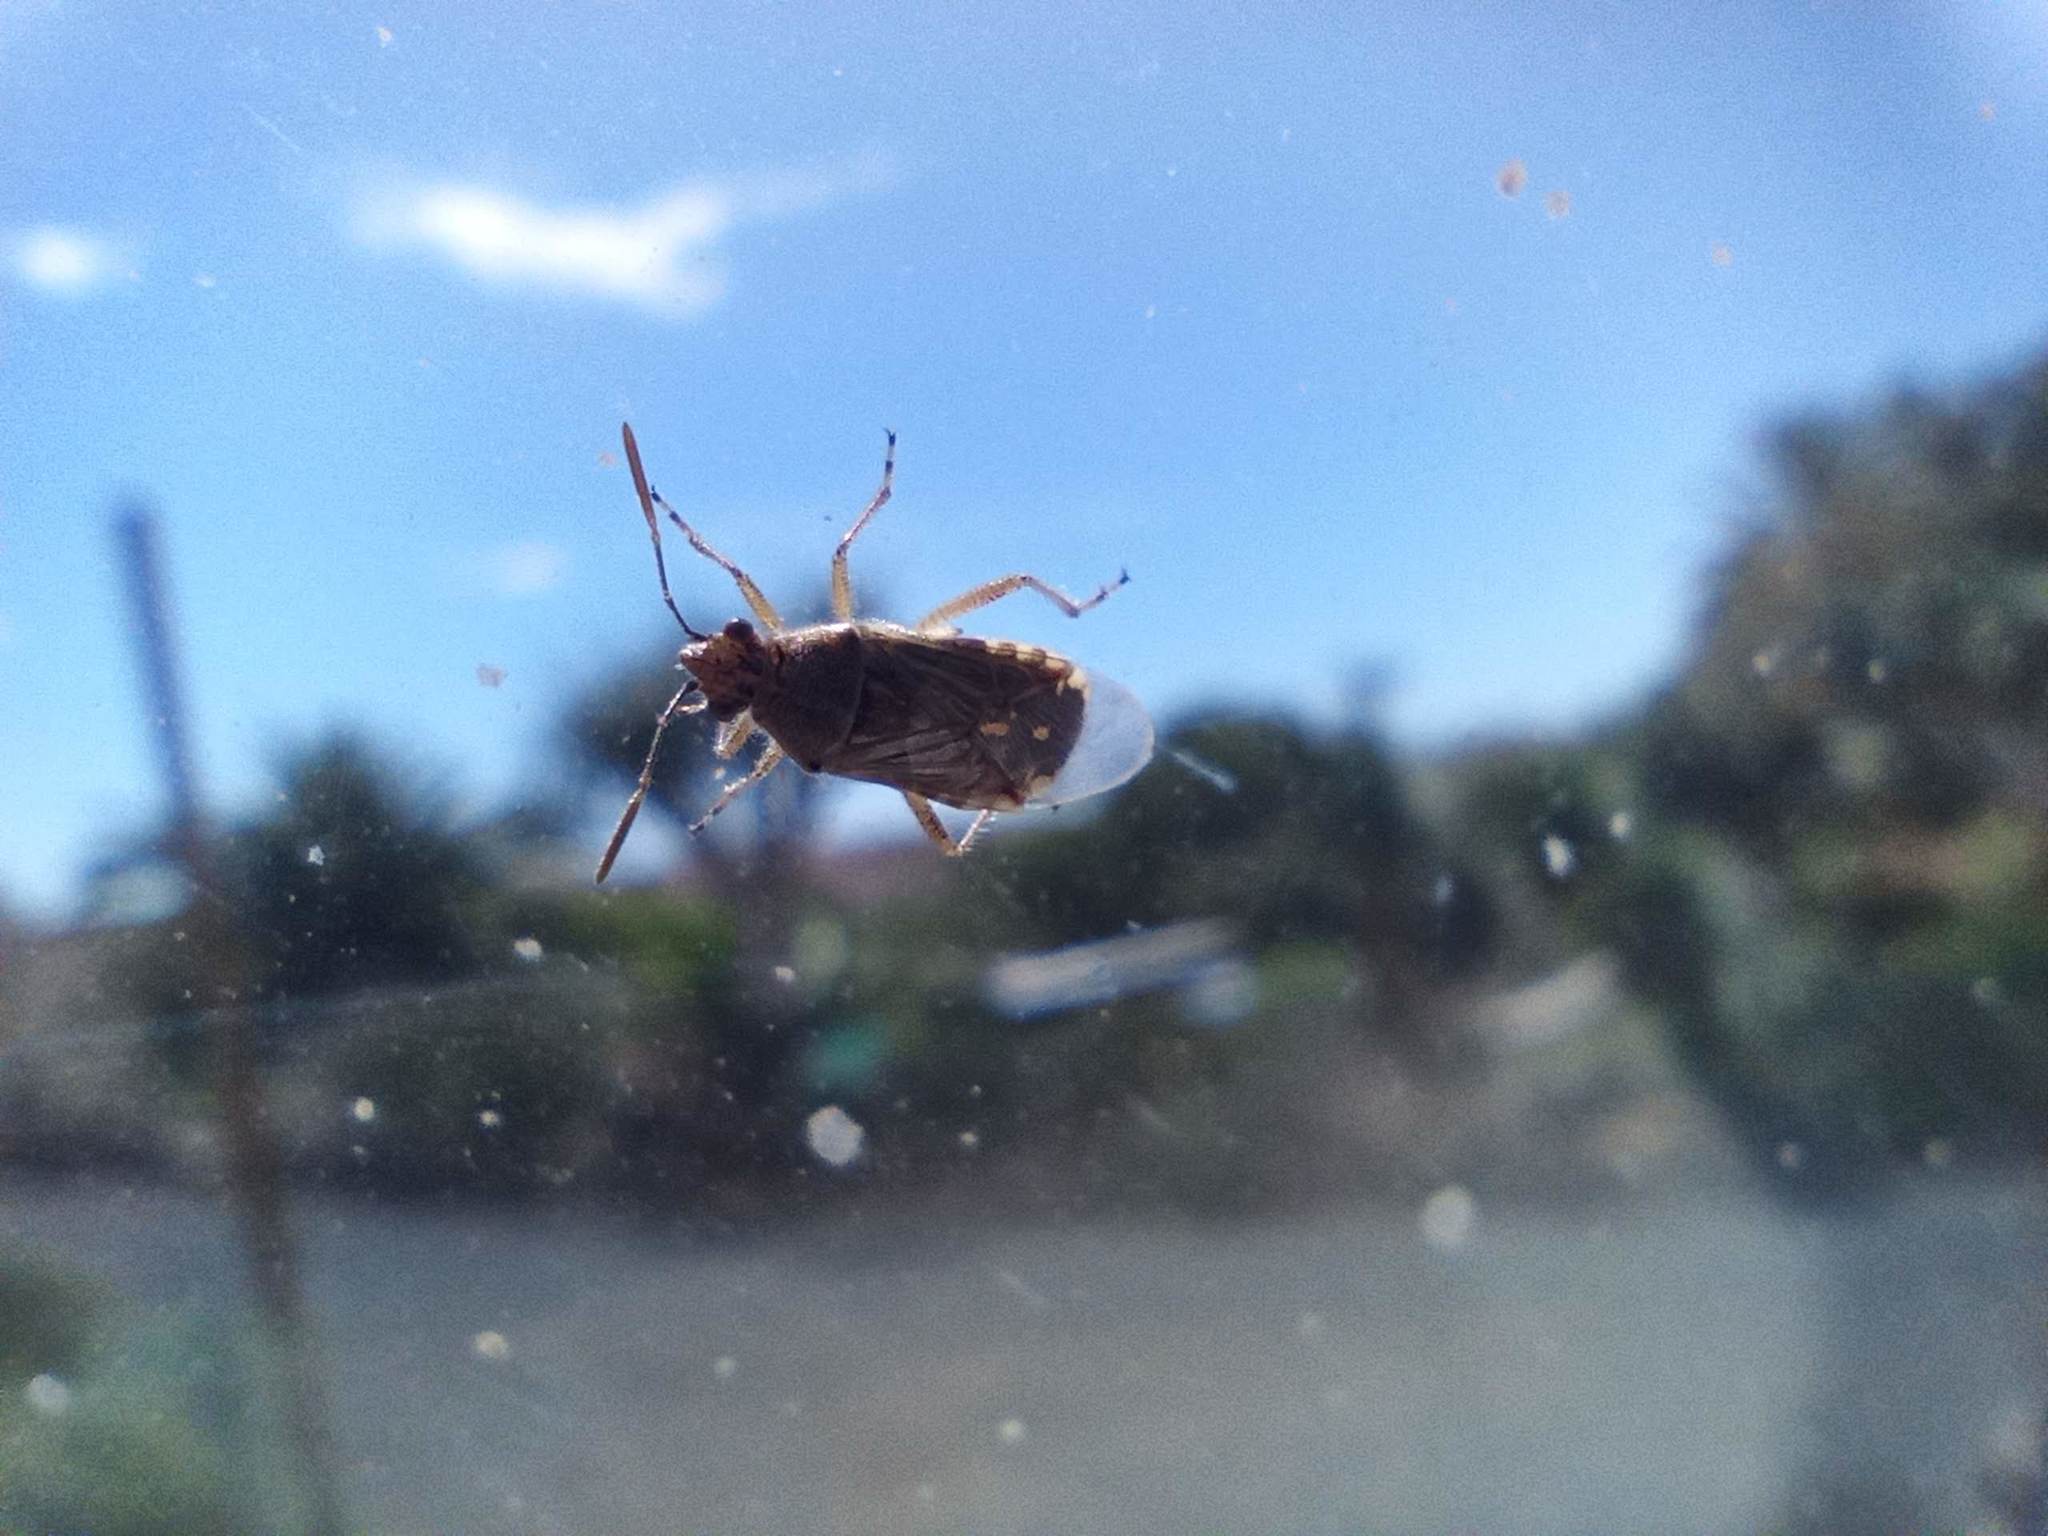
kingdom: Animalia
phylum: Arthropoda
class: Insecta
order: Hemiptera
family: Rhopalidae
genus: Liorhyssus
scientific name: Liorhyssus hyalinus
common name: Scentless plant bug
